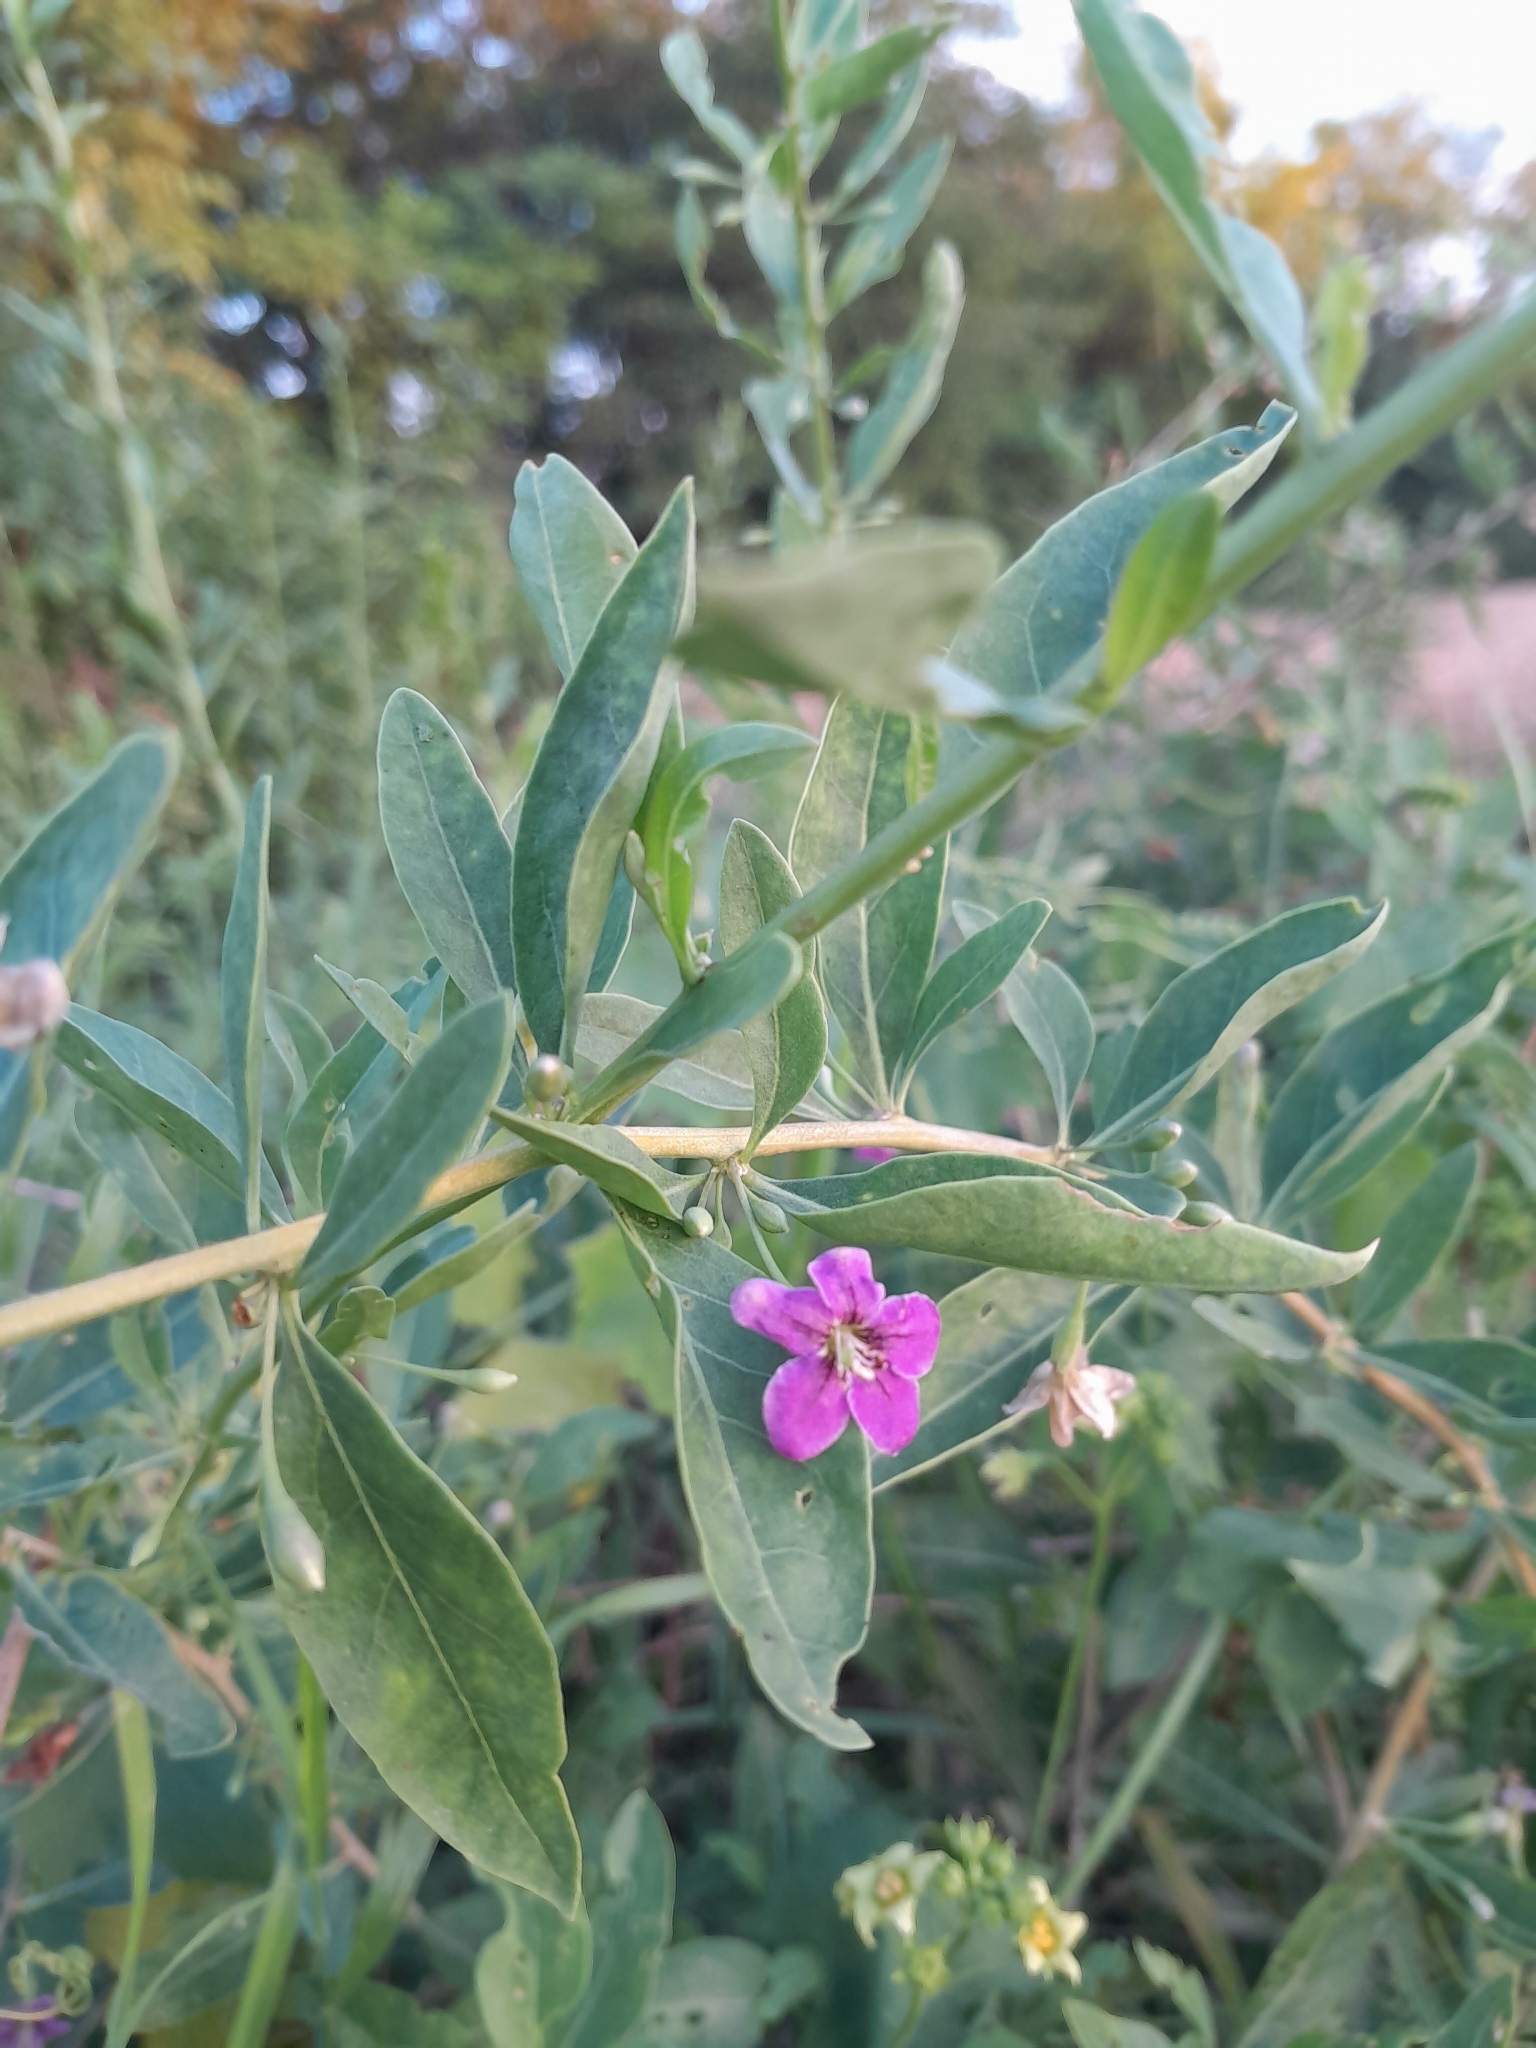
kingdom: Plantae
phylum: Tracheophyta
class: Magnoliopsida
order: Solanales
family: Solanaceae
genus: Lycium
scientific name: Lycium barbarum
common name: Duke of argyll's teaplant
